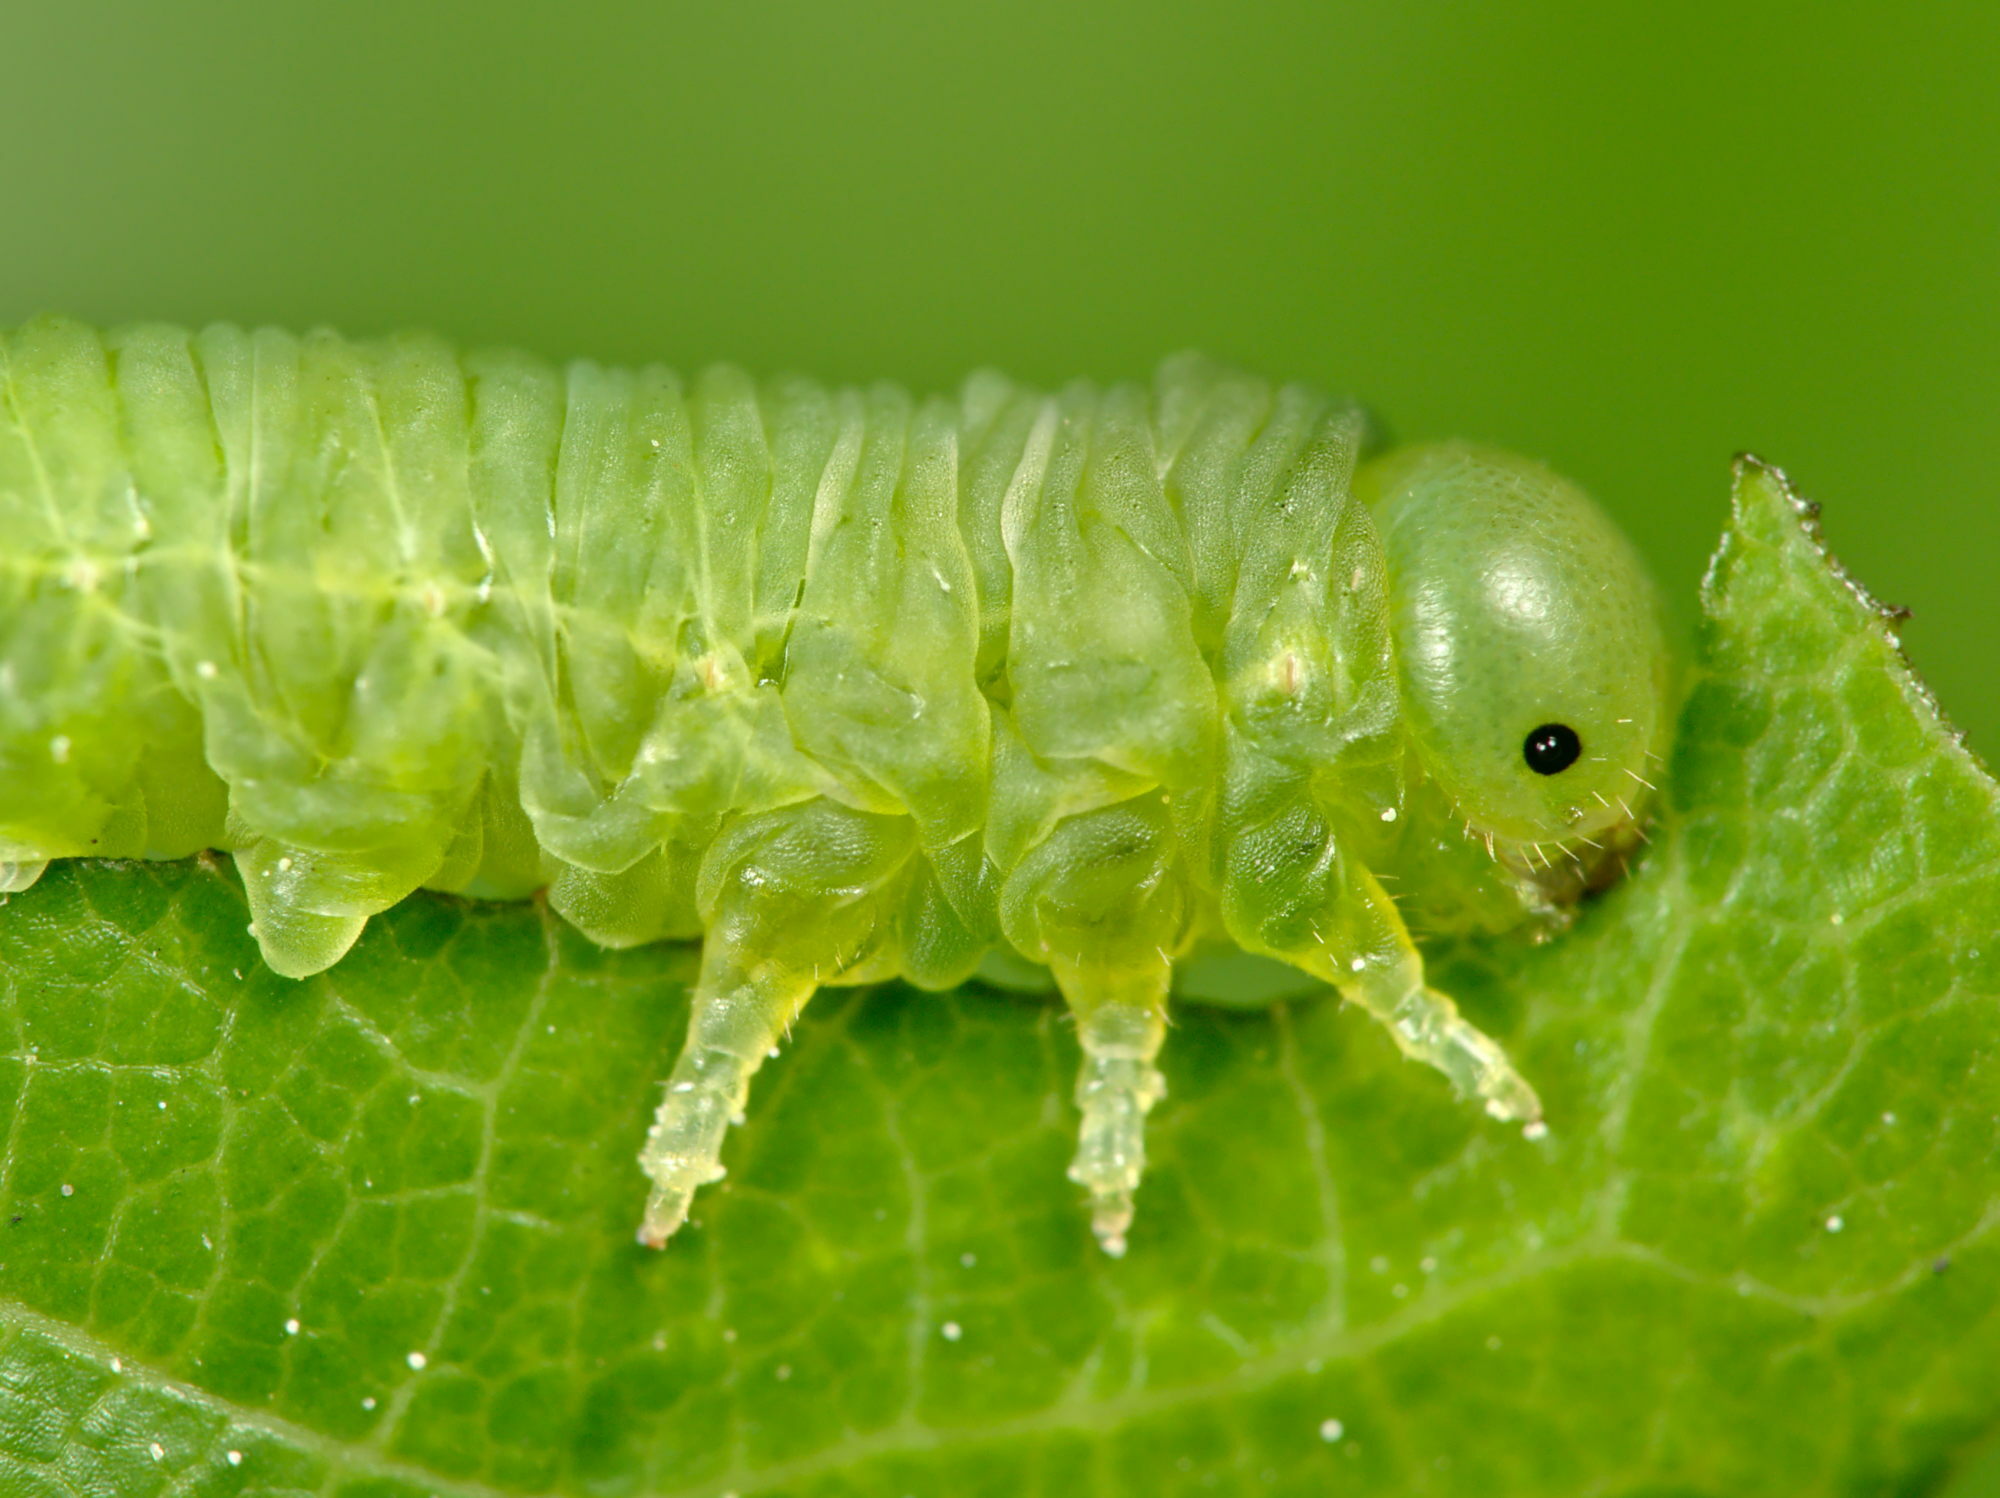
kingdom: Animalia
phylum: Arthropoda
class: Insecta
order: Hymenoptera
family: Tenthredinidae
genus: Mesoneura
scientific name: Mesoneura opaca
